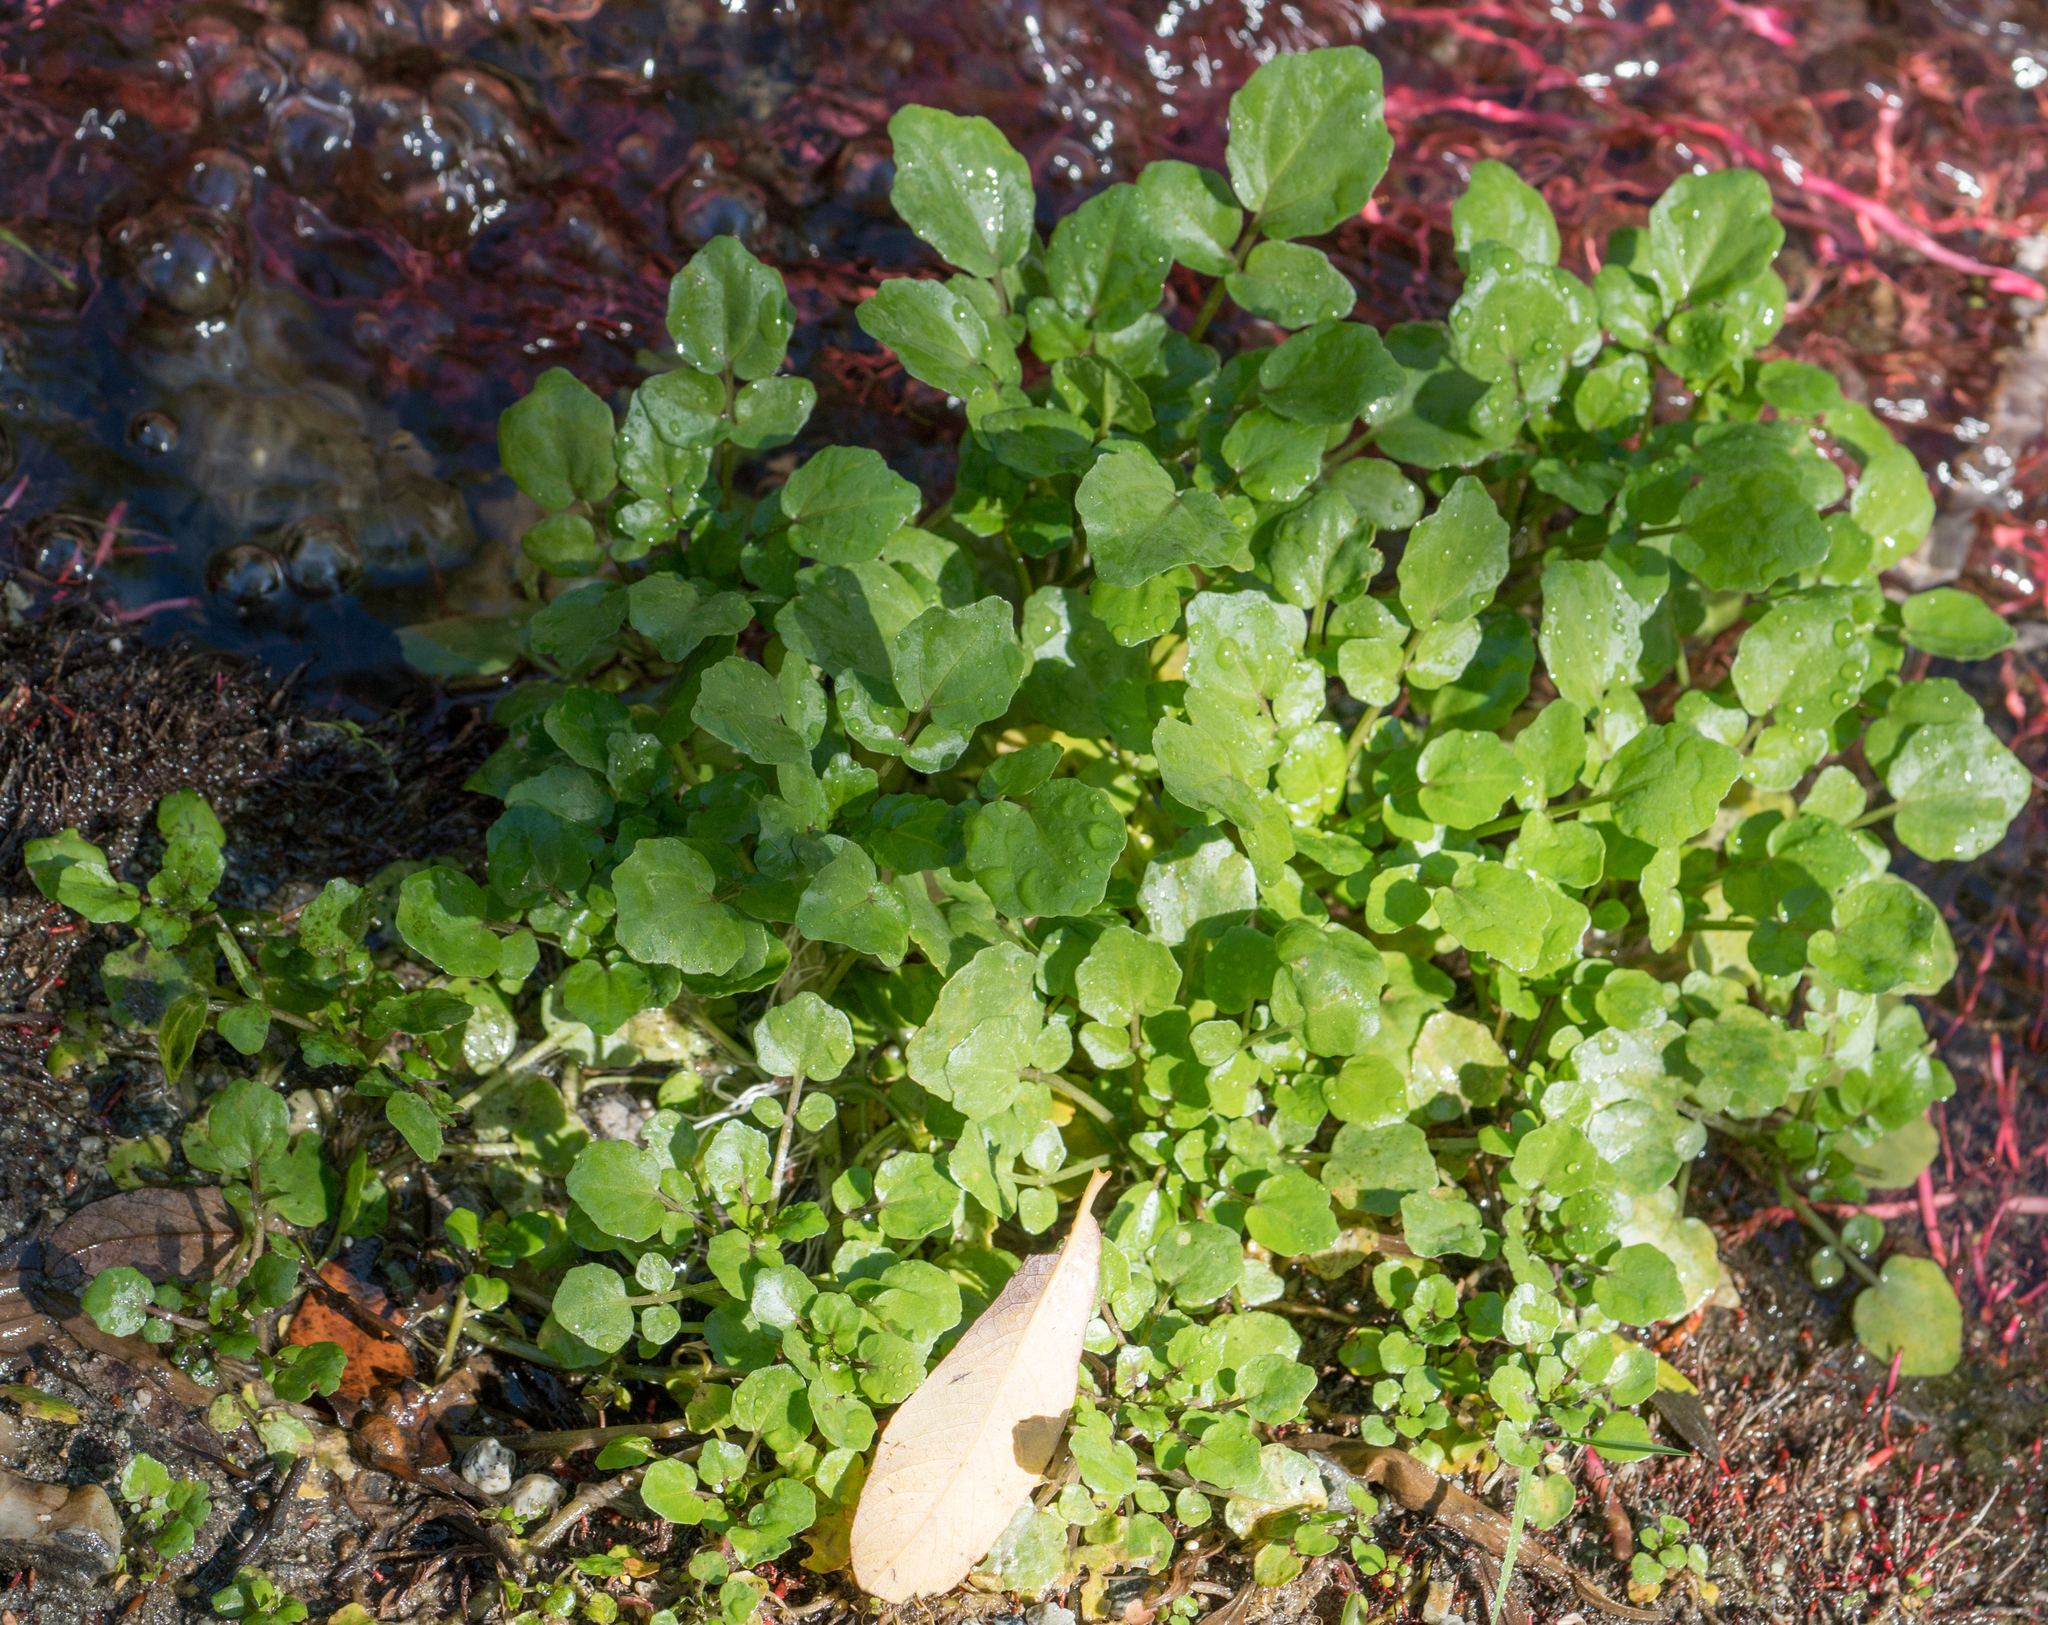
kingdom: Plantae
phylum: Tracheophyta
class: Magnoliopsida
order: Brassicales
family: Brassicaceae
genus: Nasturtium
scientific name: Nasturtium officinale
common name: Watercress
